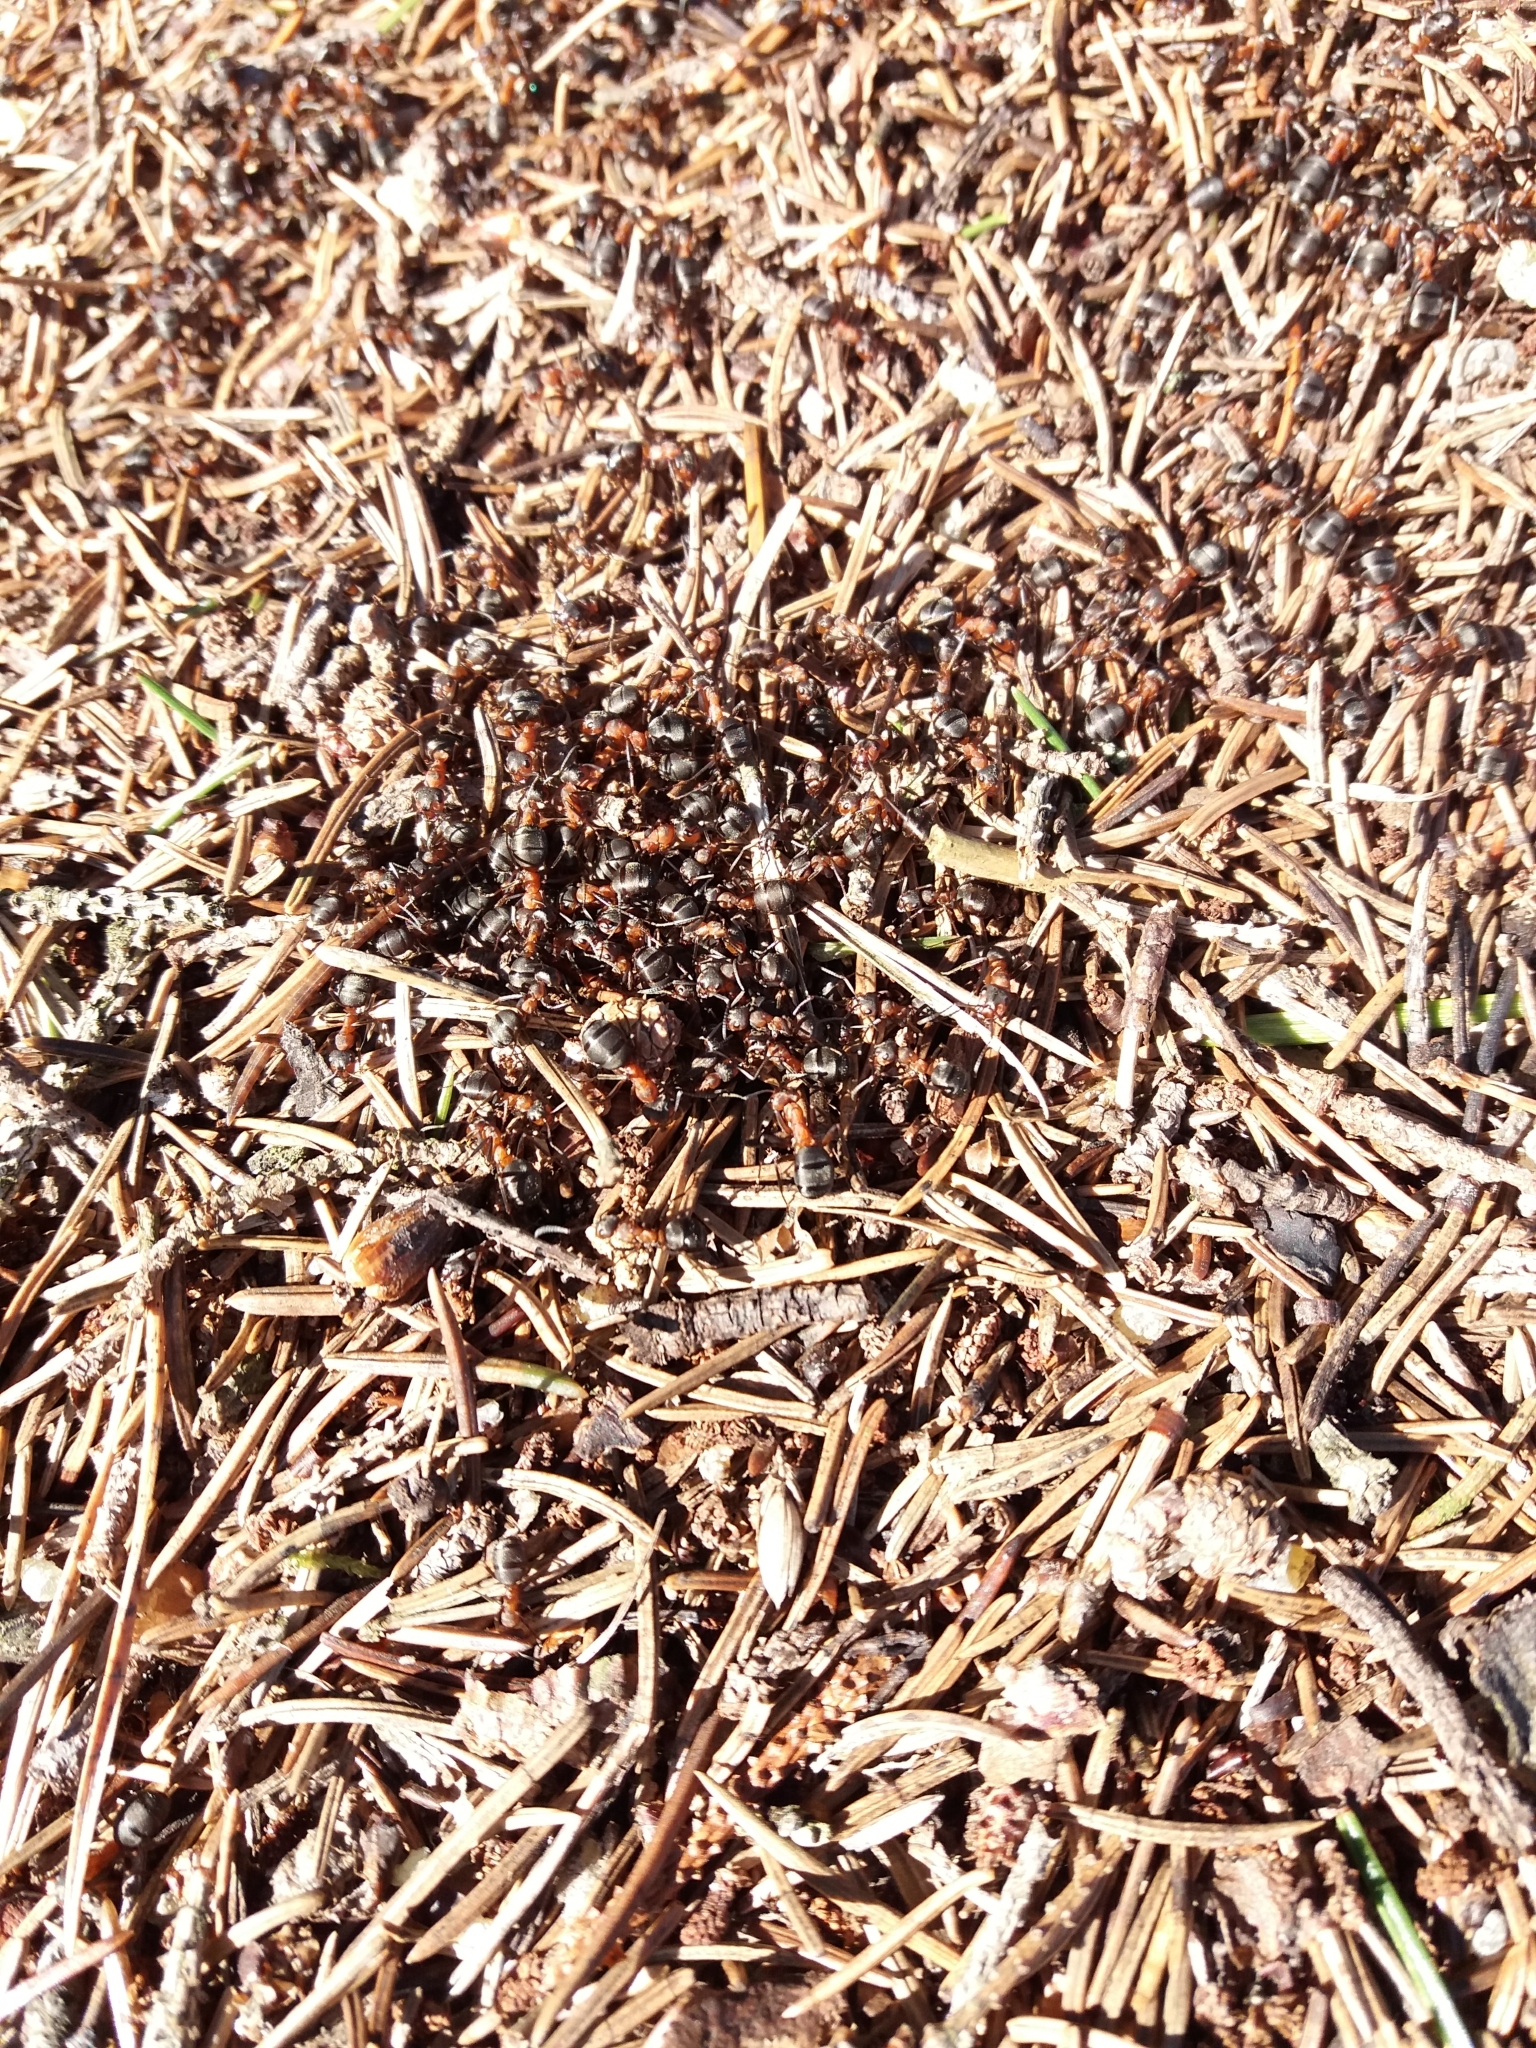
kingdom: Animalia
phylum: Arthropoda
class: Insecta
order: Hymenoptera
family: Formicidae
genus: Formica
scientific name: Formica
